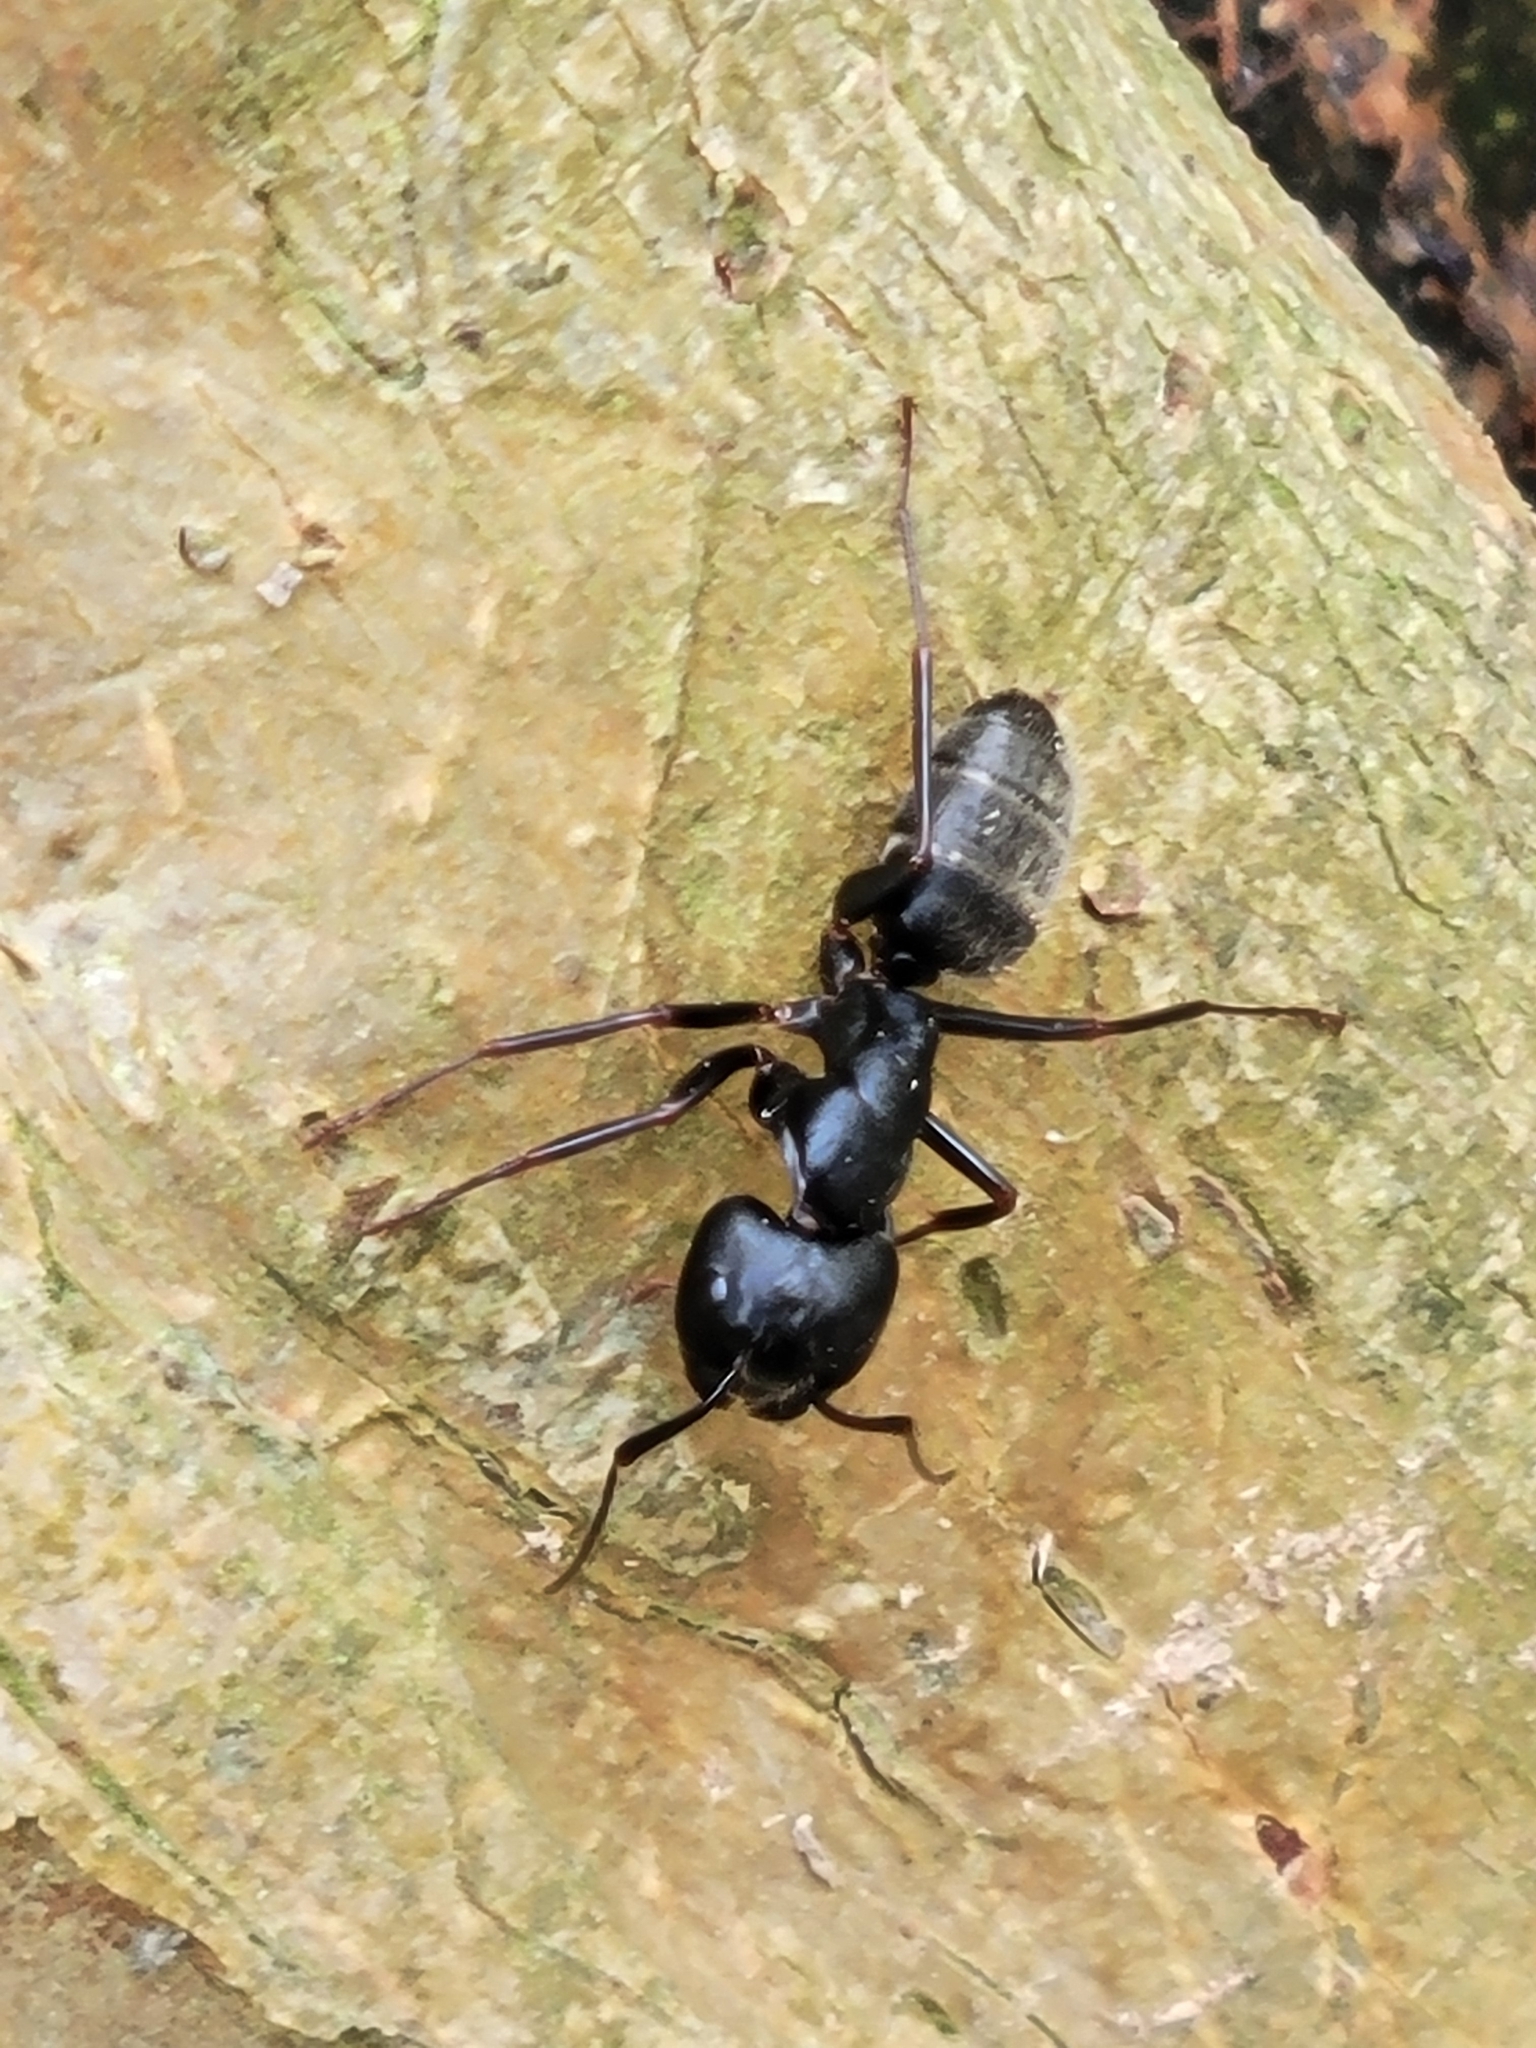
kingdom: Animalia
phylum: Arthropoda
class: Insecta
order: Hymenoptera
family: Formicidae
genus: Camponotus
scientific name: Camponotus pennsylvanicus
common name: Black carpenter ant
